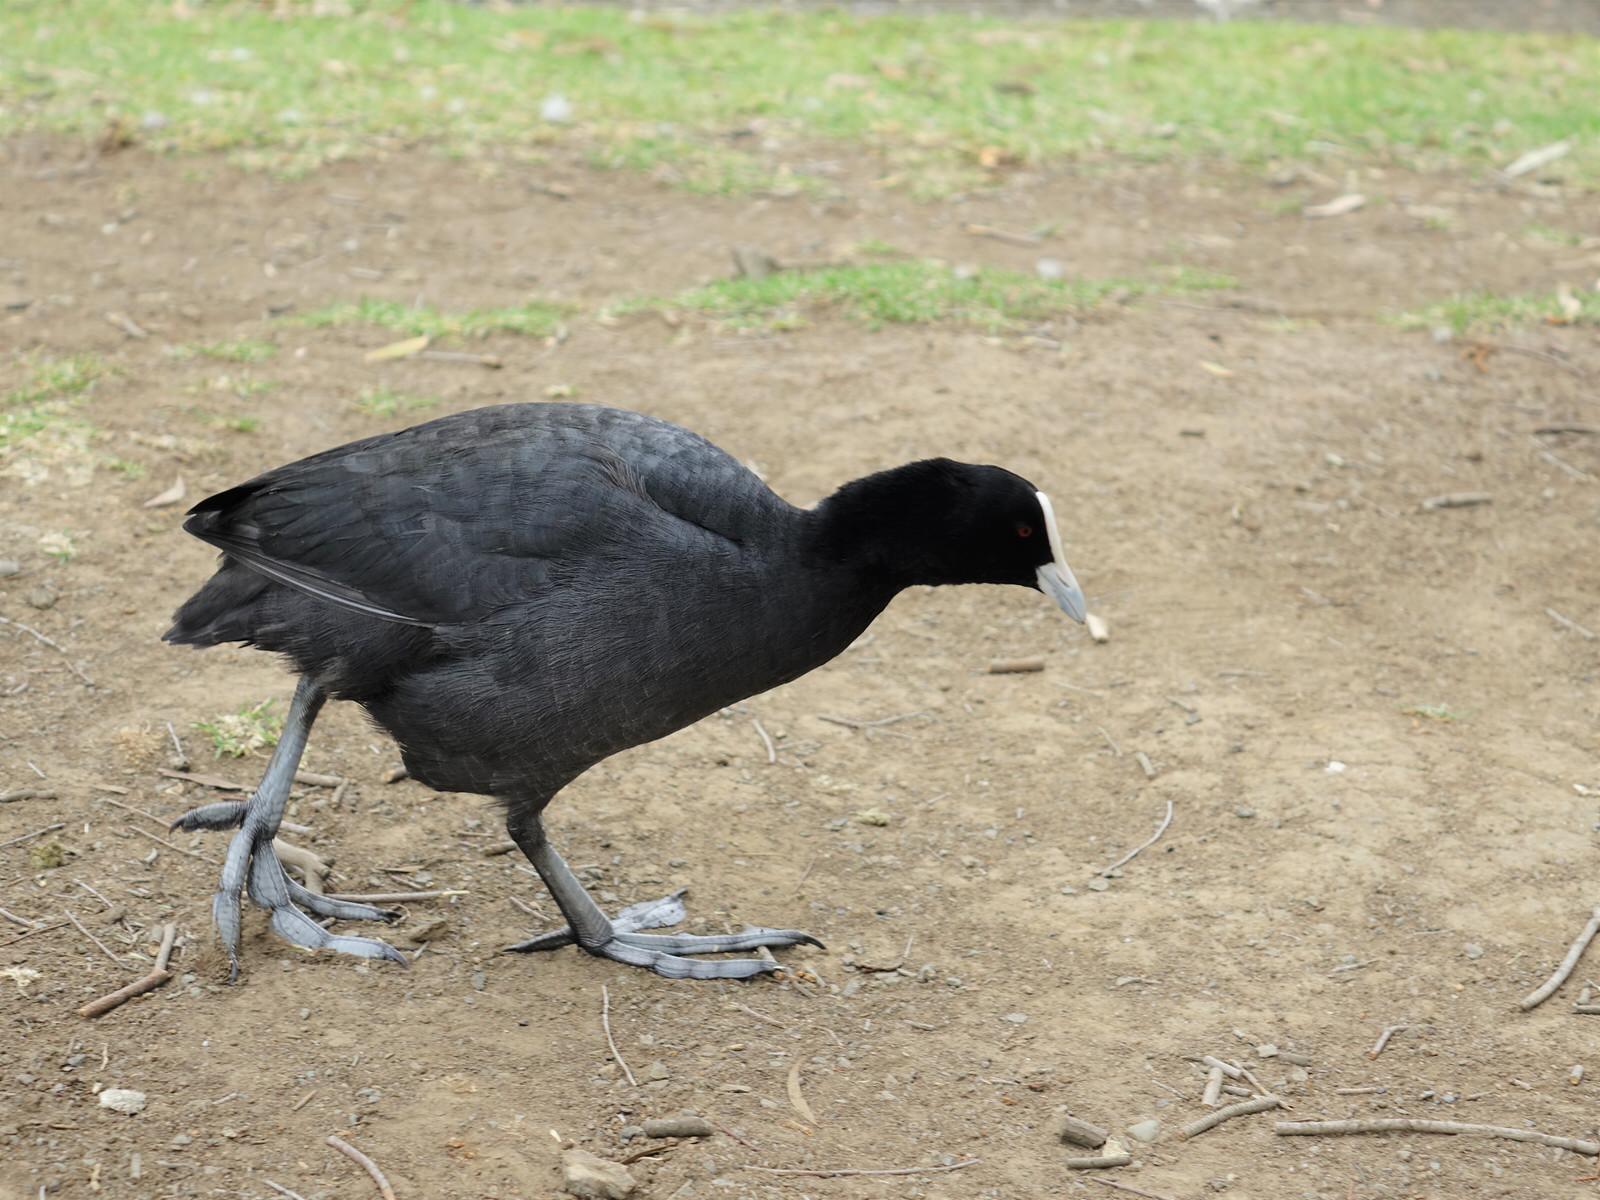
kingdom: Animalia
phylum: Chordata
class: Aves
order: Gruiformes
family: Rallidae
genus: Fulica
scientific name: Fulica atra
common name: Eurasian coot
